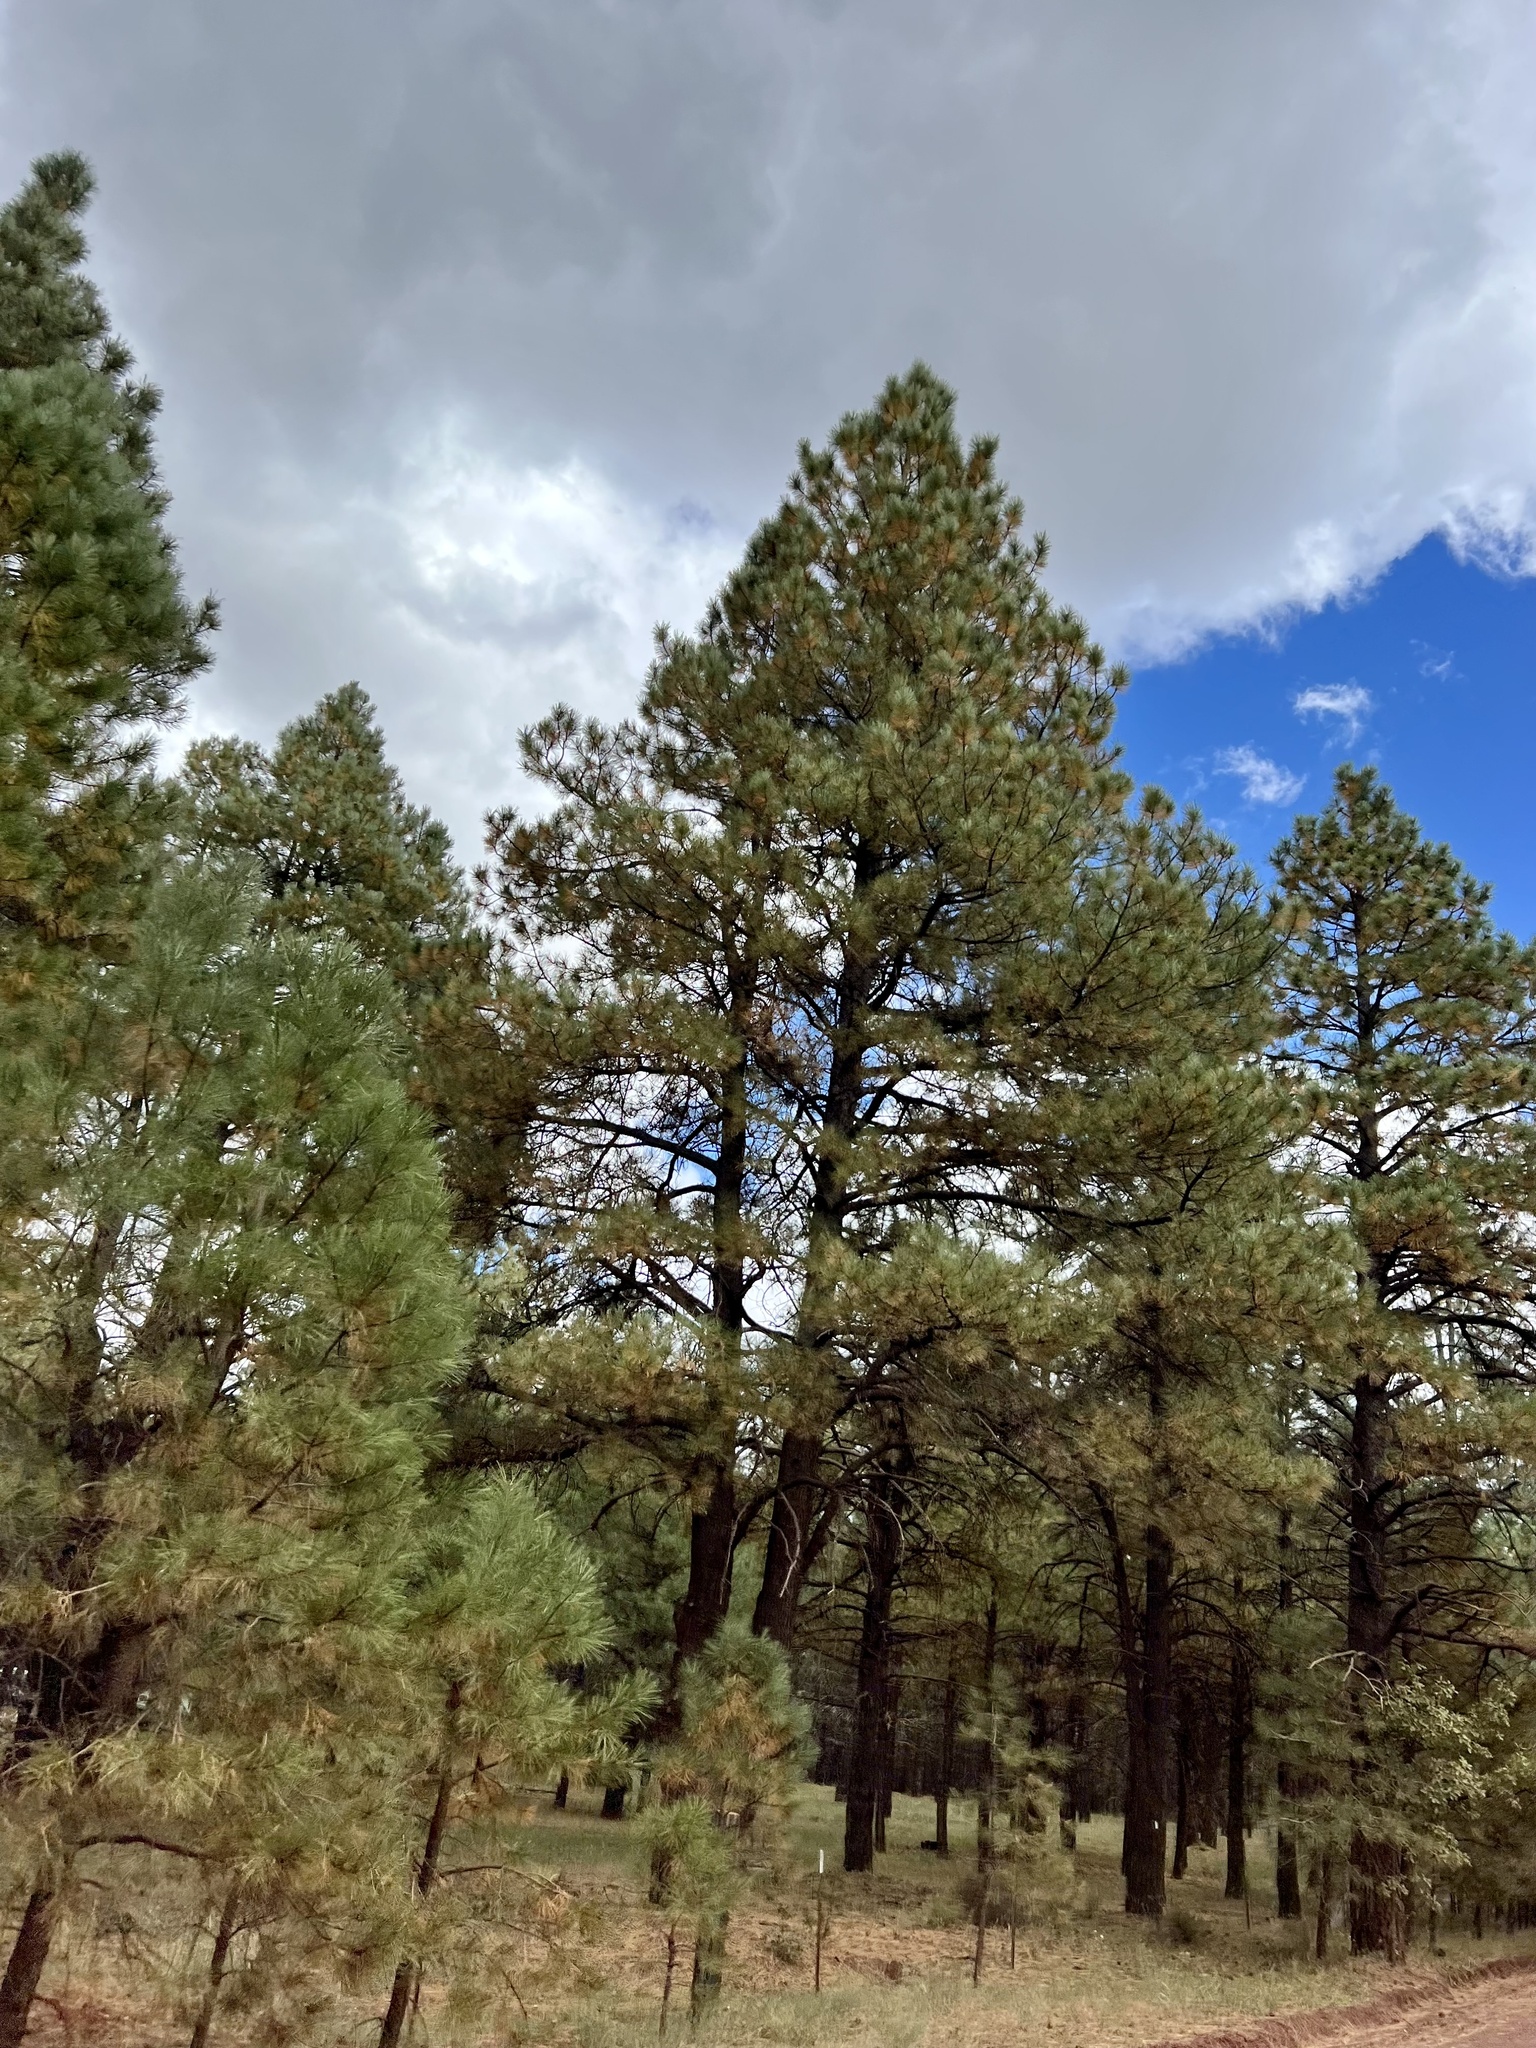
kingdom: Plantae
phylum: Tracheophyta
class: Pinopsida
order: Pinales
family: Pinaceae
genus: Pinus
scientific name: Pinus ponderosa
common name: Western yellow-pine
